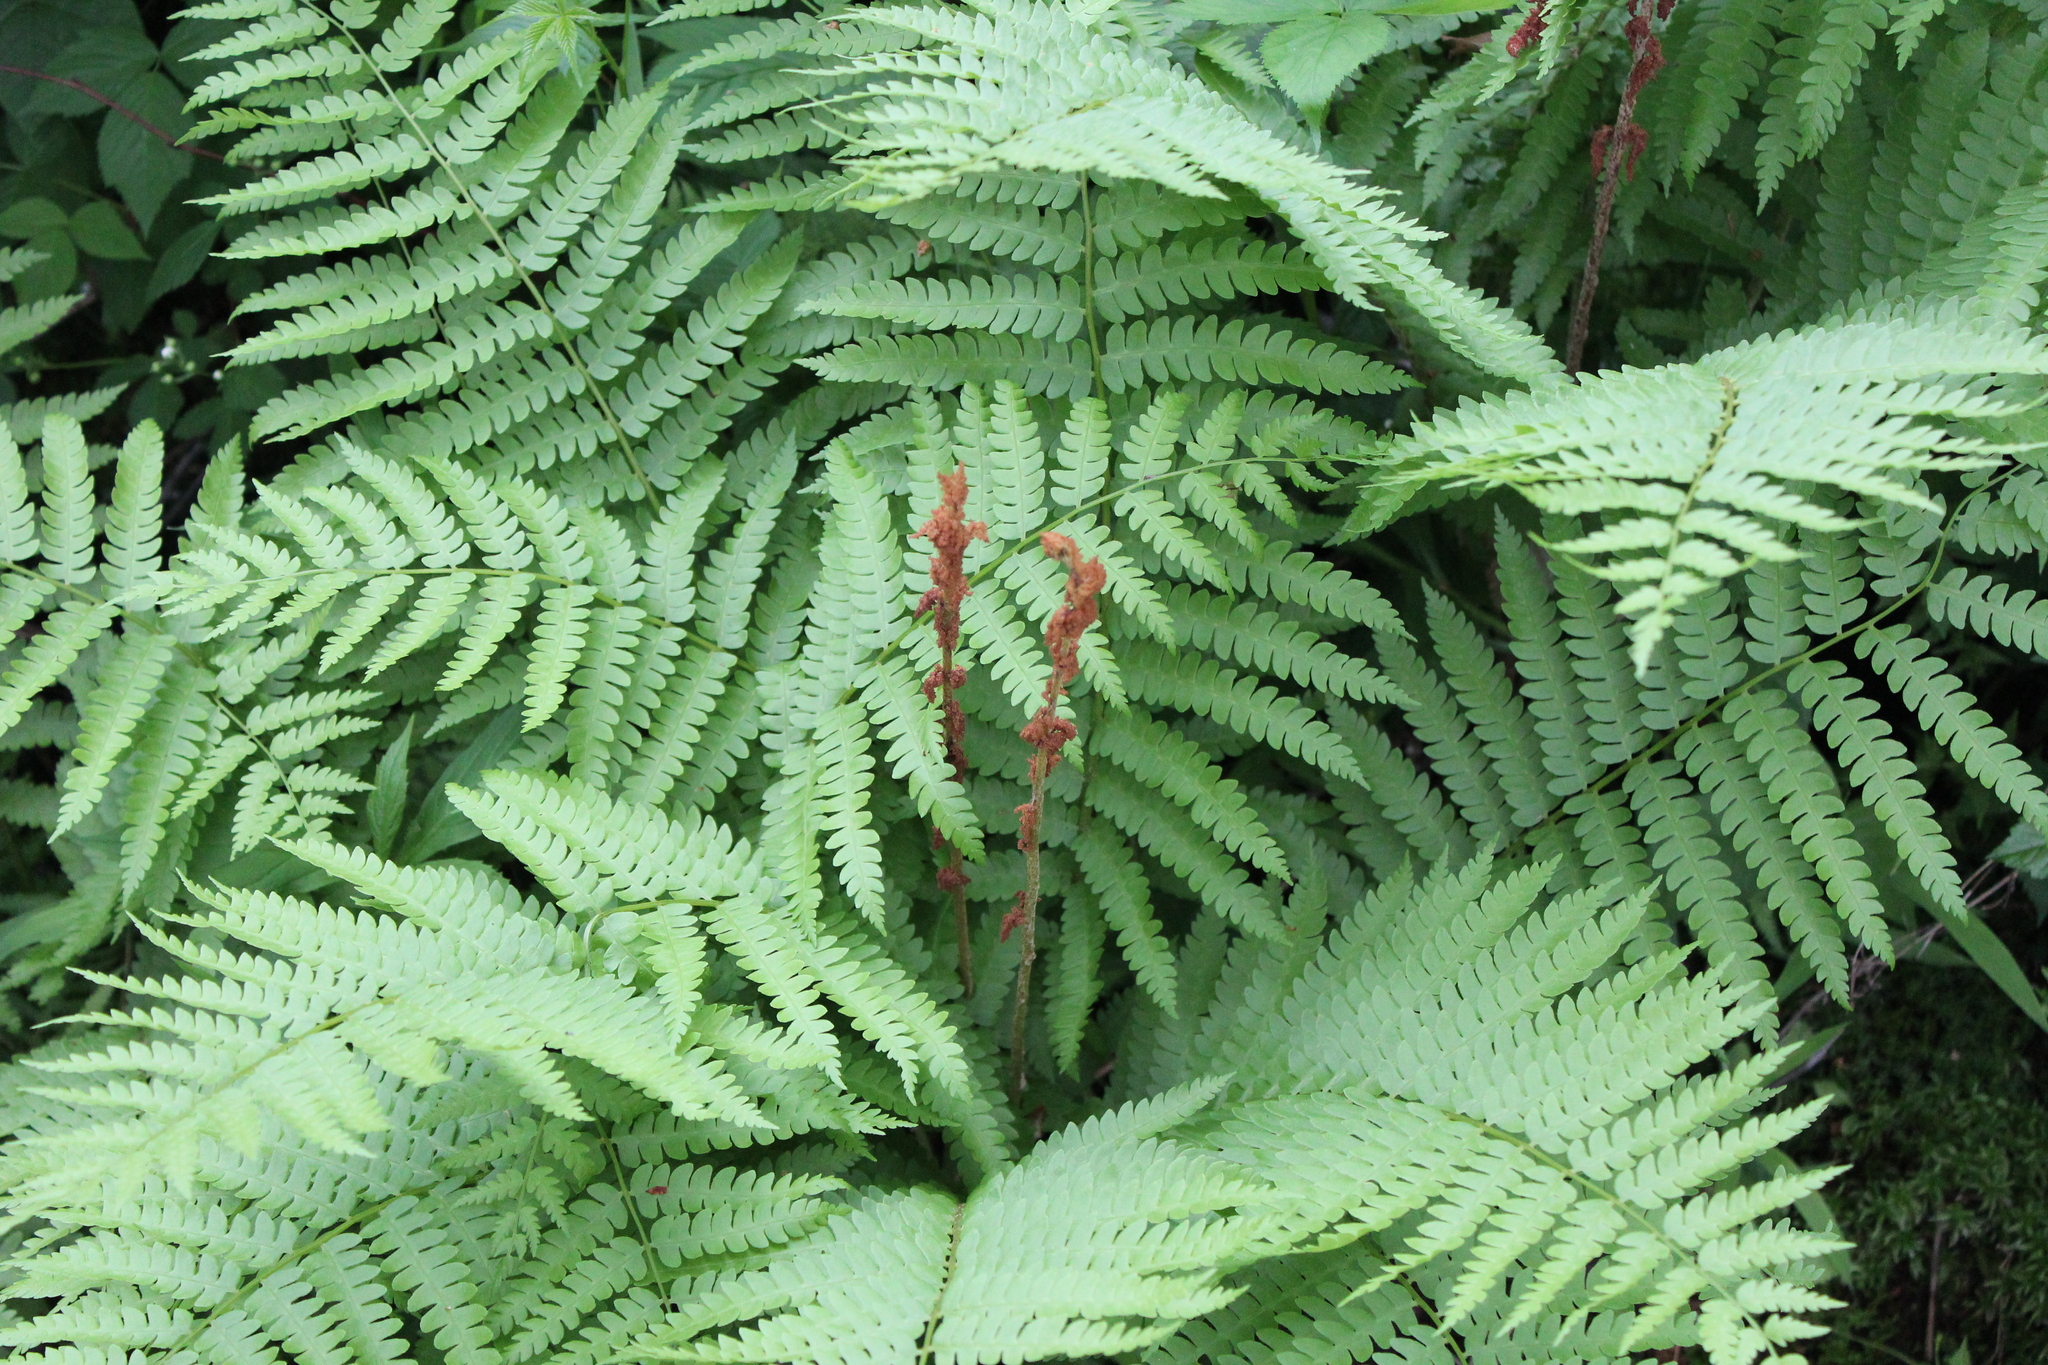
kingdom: Plantae
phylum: Tracheophyta
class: Polypodiopsida
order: Osmundales
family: Osmundaceae
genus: Osmundastrum
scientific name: Osmundastrum cinnamomeum
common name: Cinnamon fern
